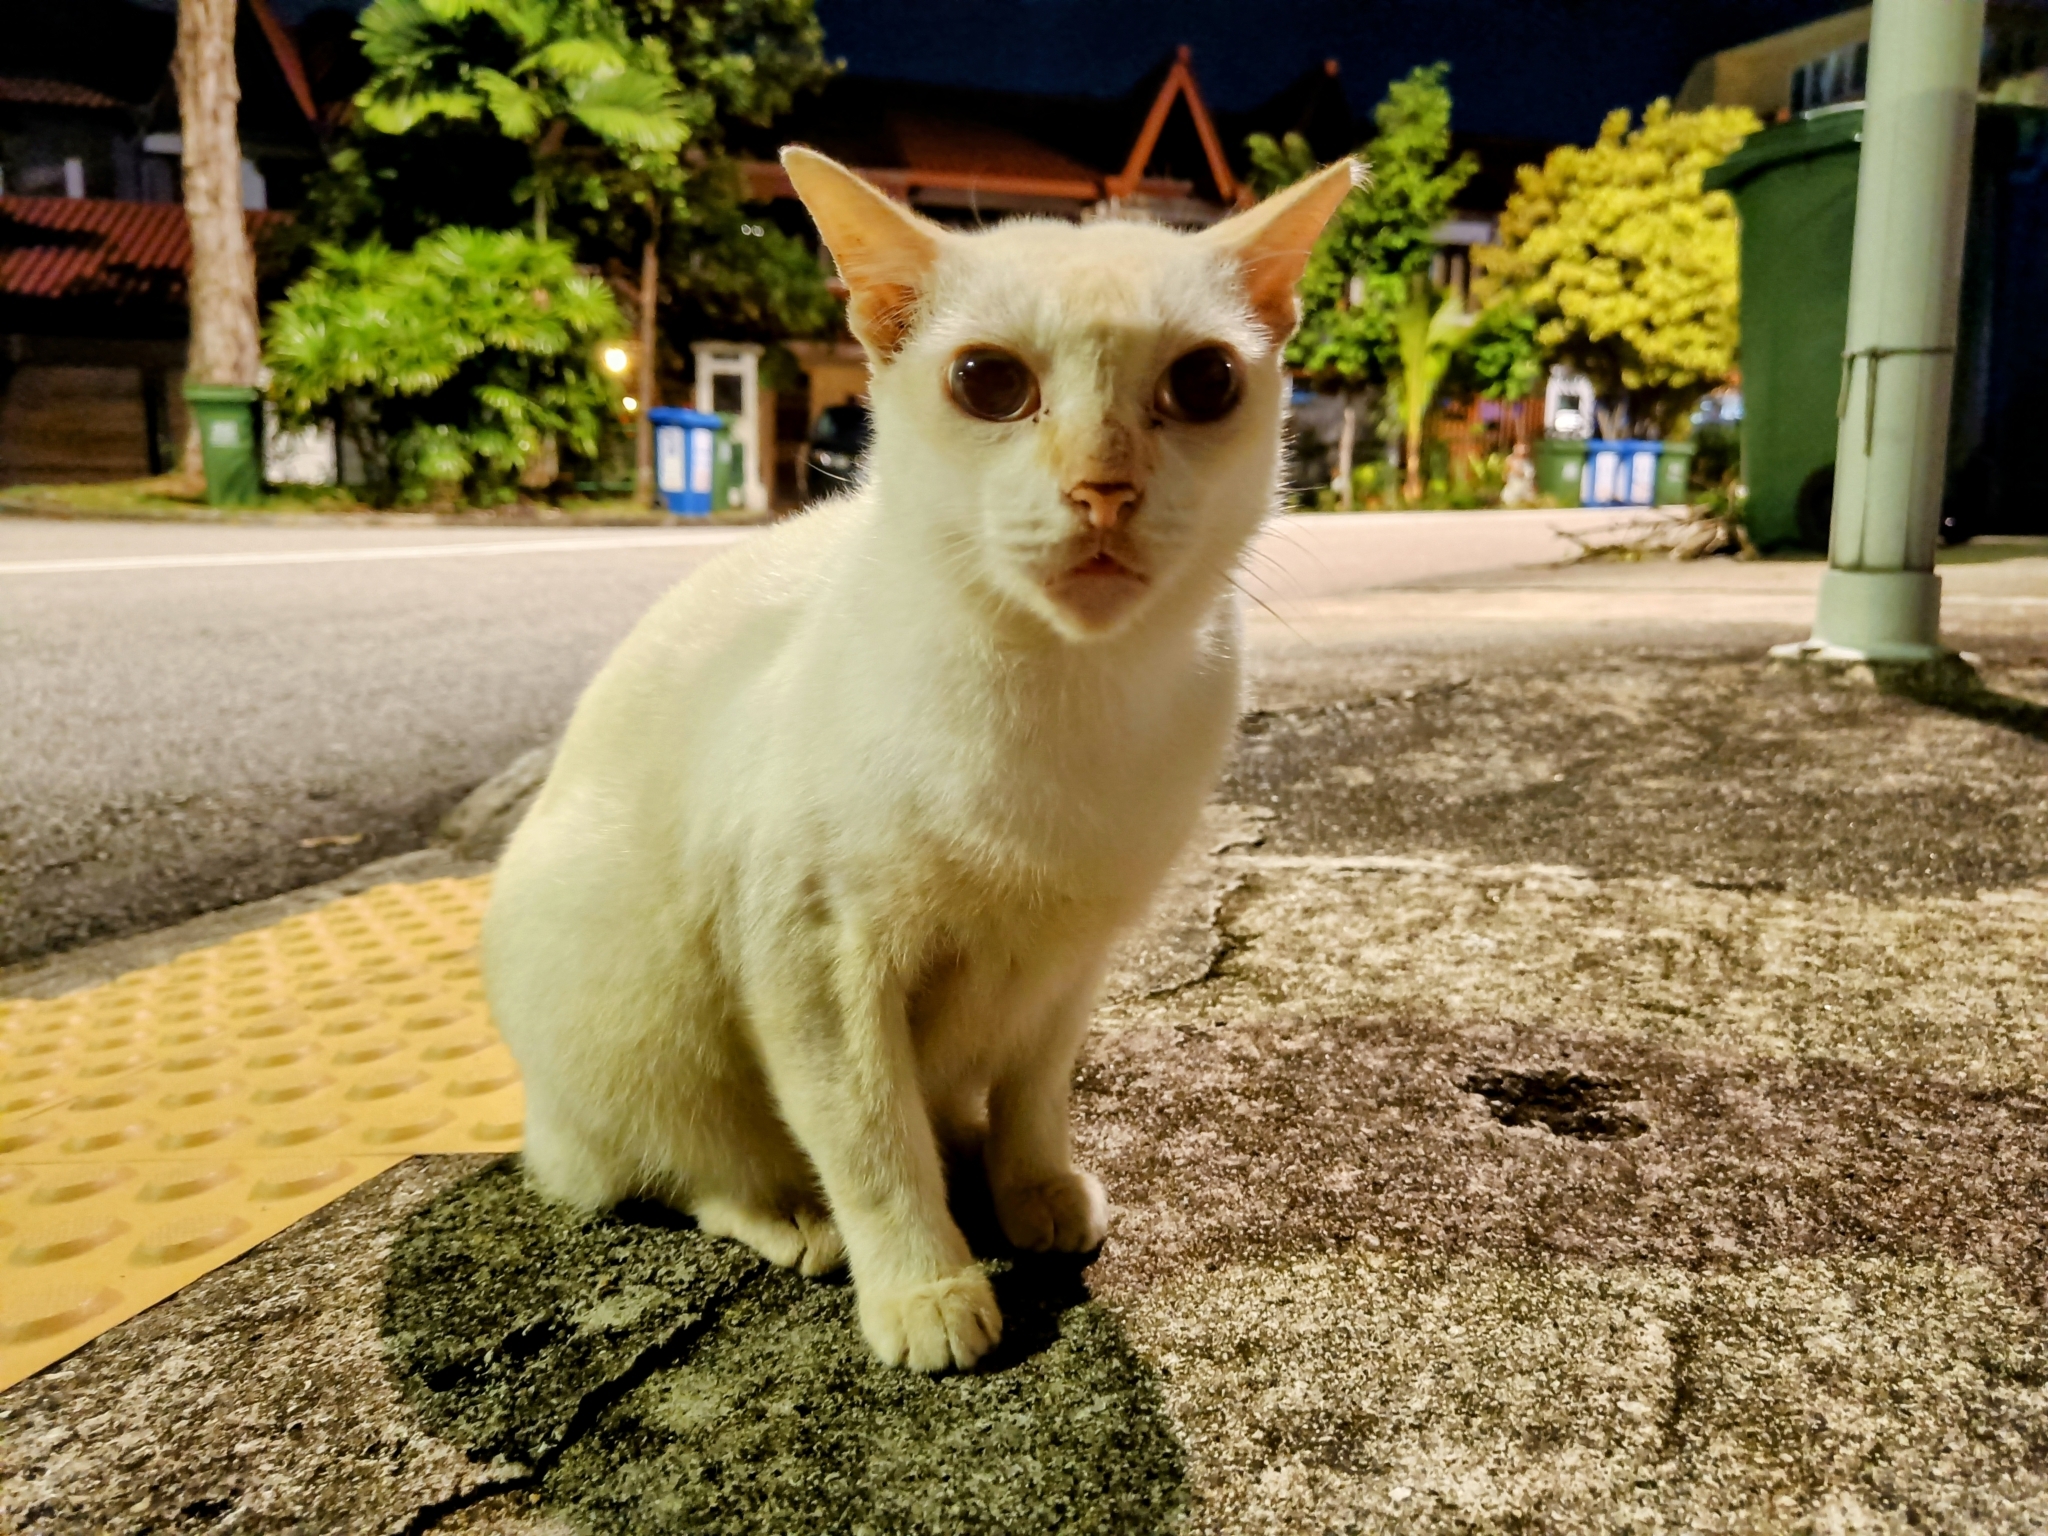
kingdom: Animalia
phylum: Chordata
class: Mammalia
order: Carnivora
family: Felidae
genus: Felis
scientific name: Felis catus
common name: Domestic cat
